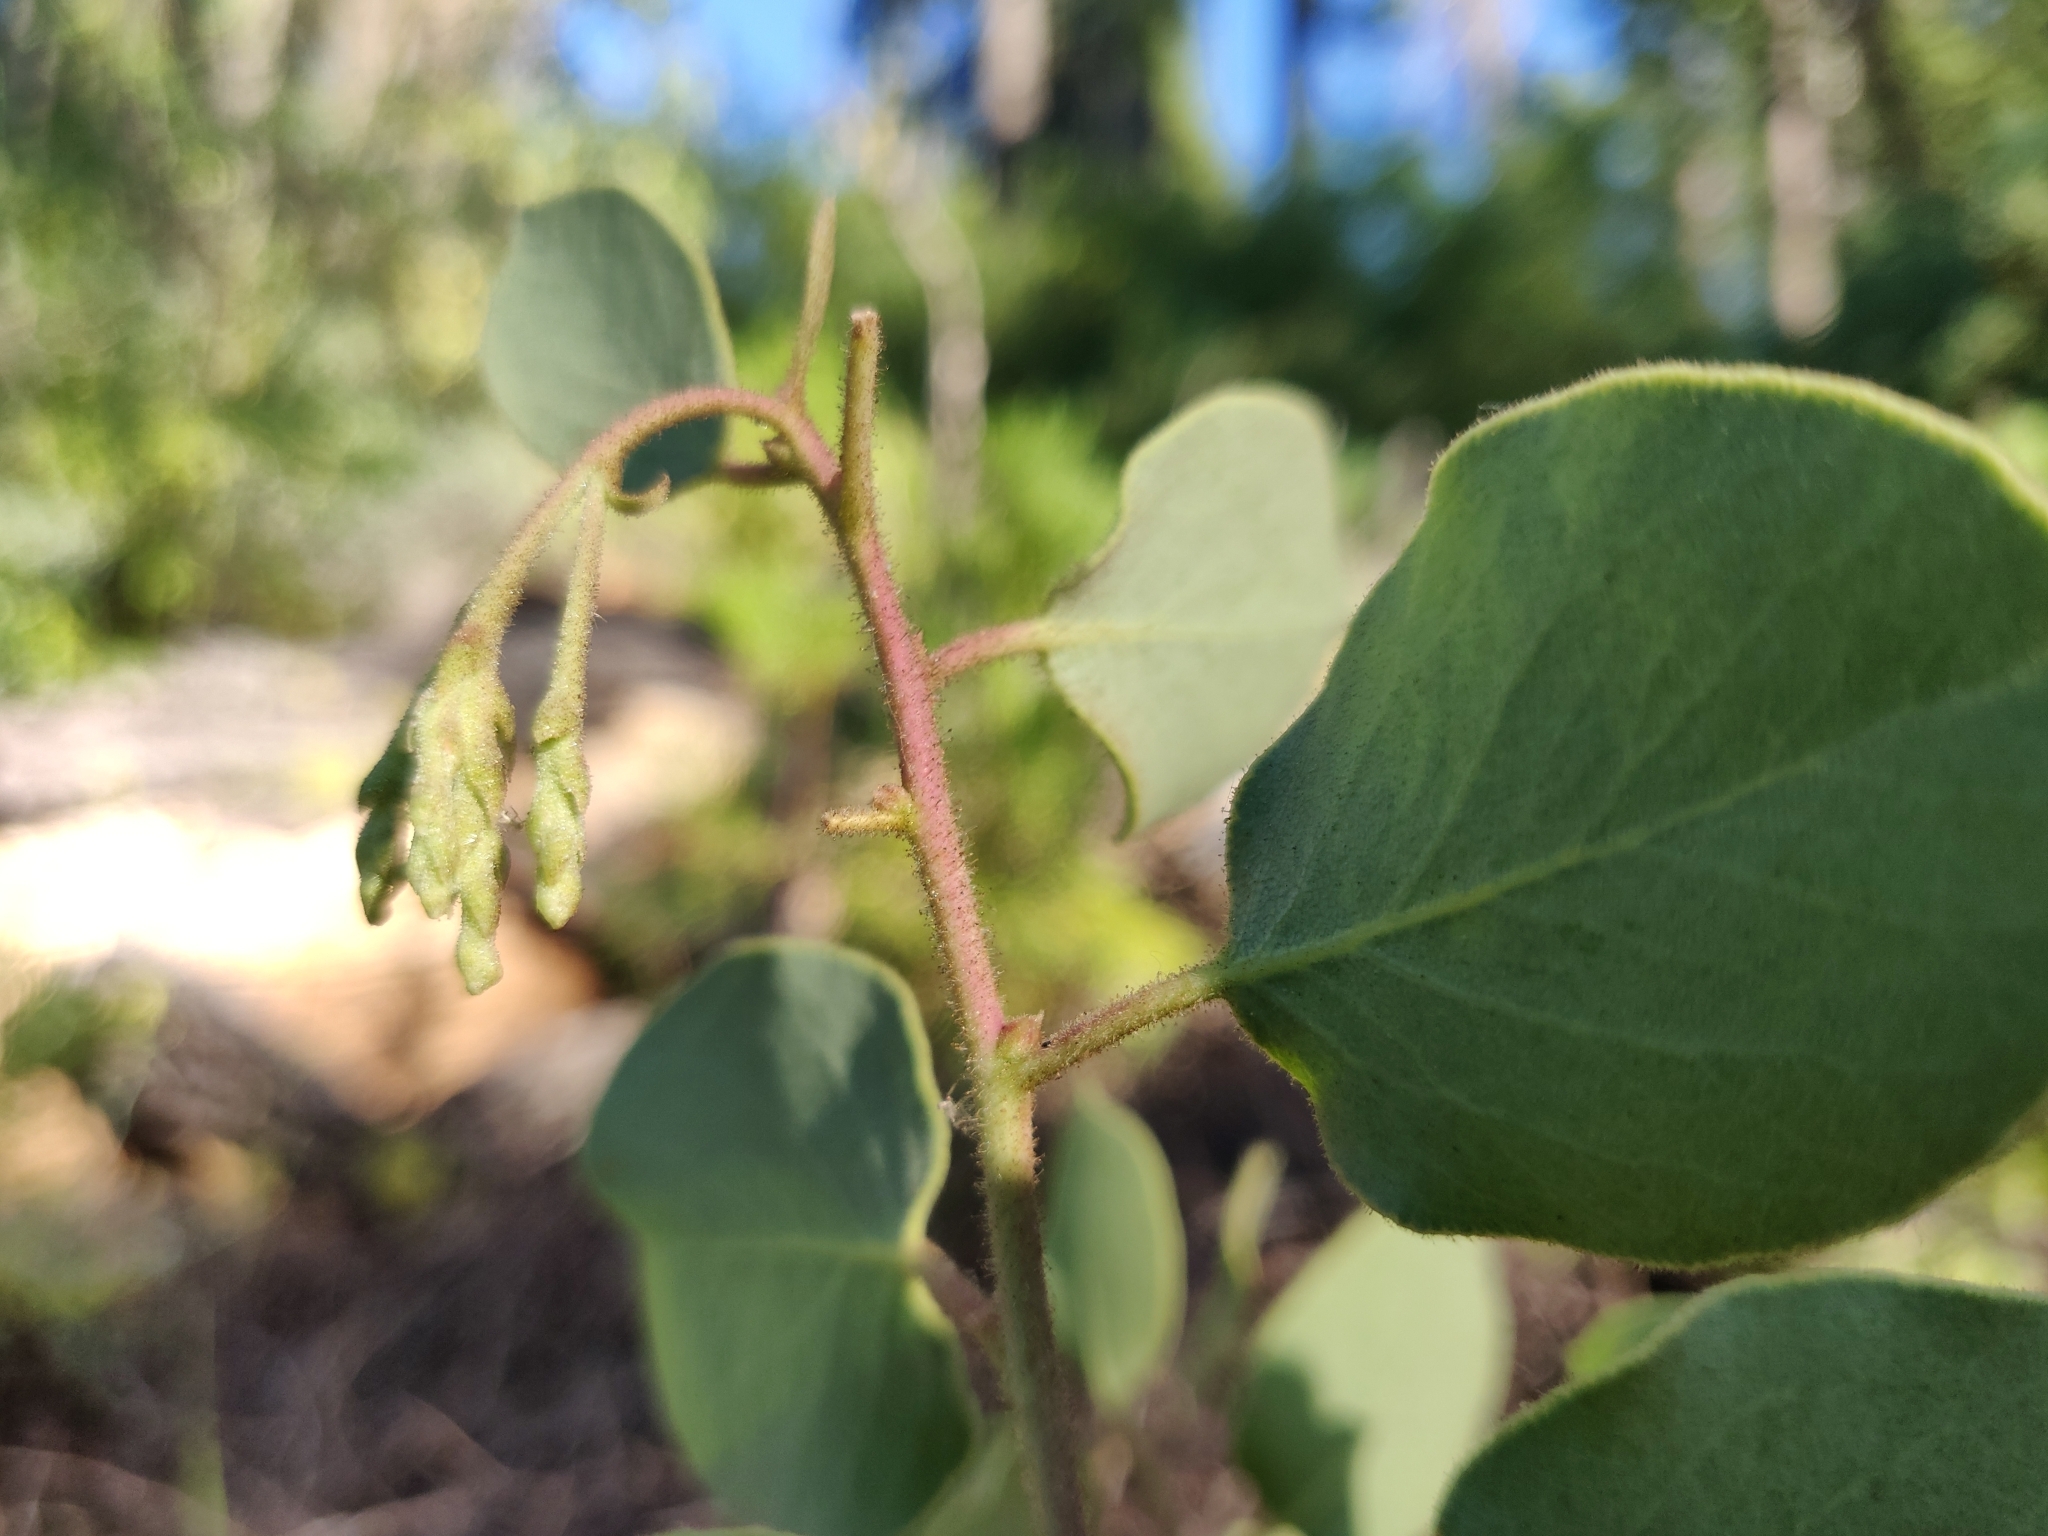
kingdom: Plantae
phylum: Tracheophyta
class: Magnoliopsida
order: Ericales
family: Ericaceae
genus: Arctostaphylos
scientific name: Arctostaphylos viscida
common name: White-leaf manzanita
